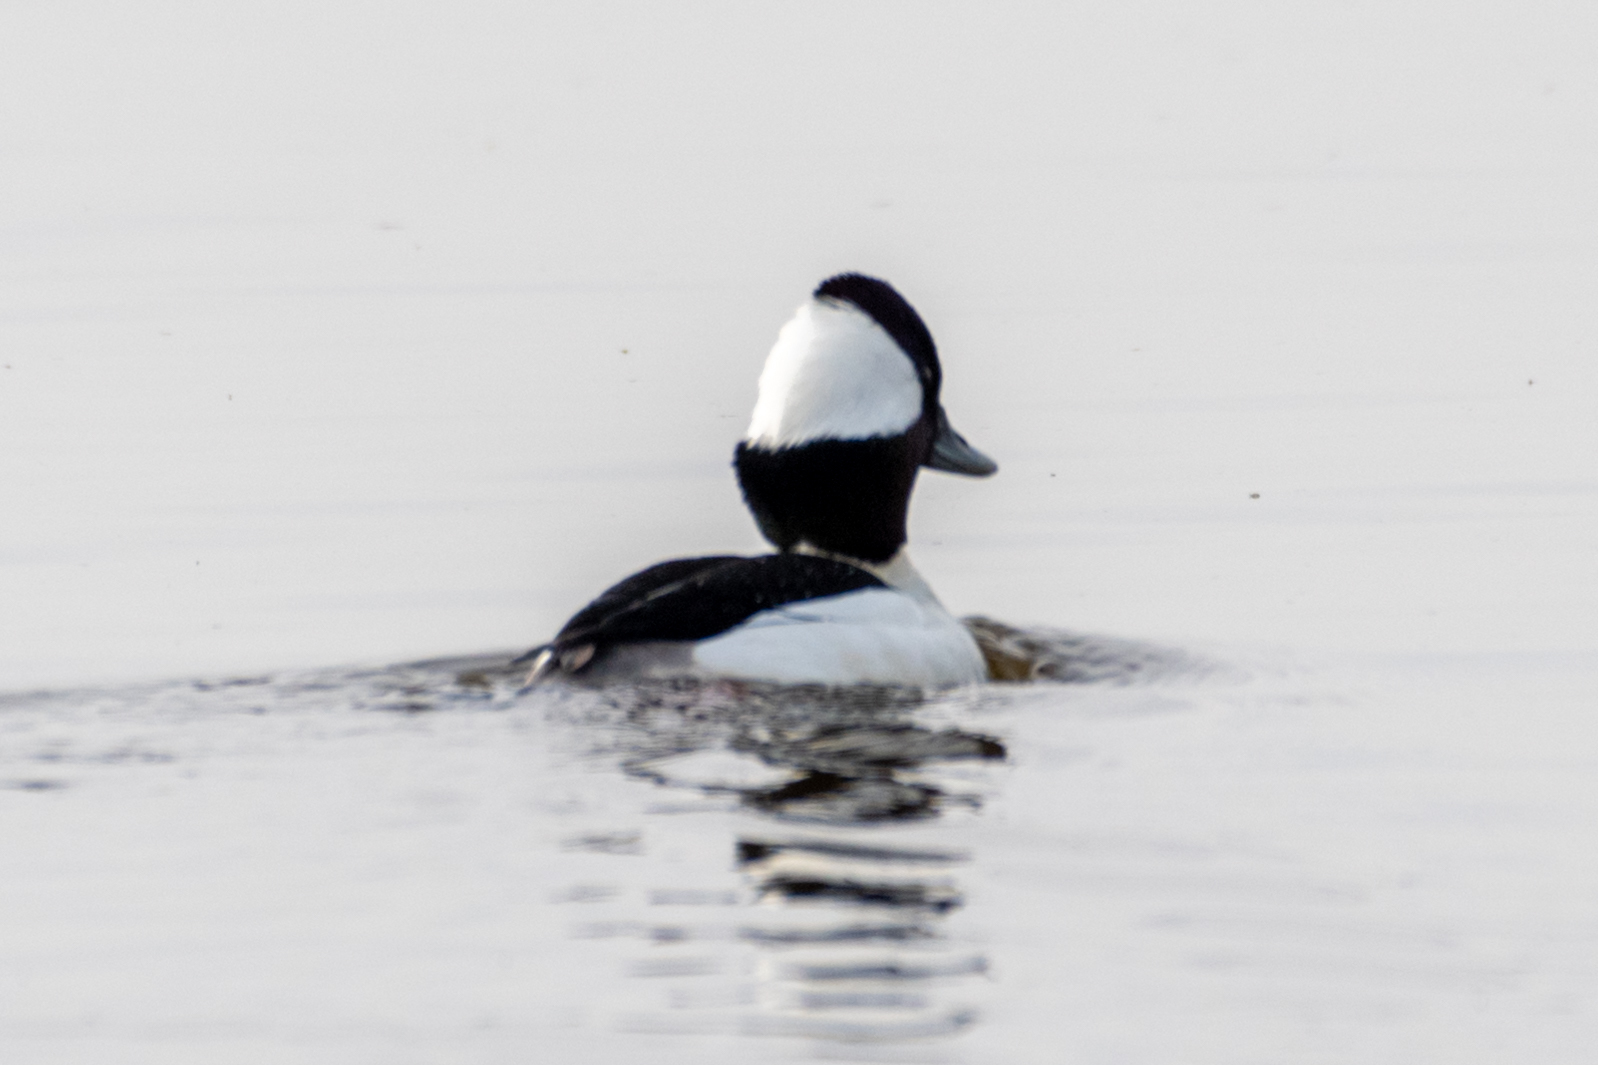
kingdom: Animalia
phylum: Chordata
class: Aves
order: Anseriformes
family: Anatidae
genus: Bucephala
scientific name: Bucephala albeola
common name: Bufflehead
